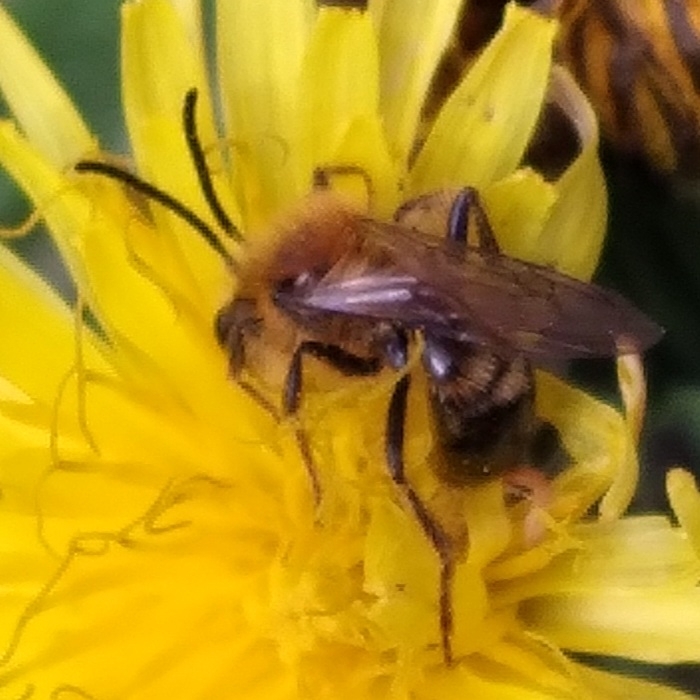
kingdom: Animalia
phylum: Arthropoda
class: Insecta
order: Hymenoptera
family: Andrenidae
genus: Andrena
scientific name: Andrena milwaukeensis
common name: Milwaukee mining bee
